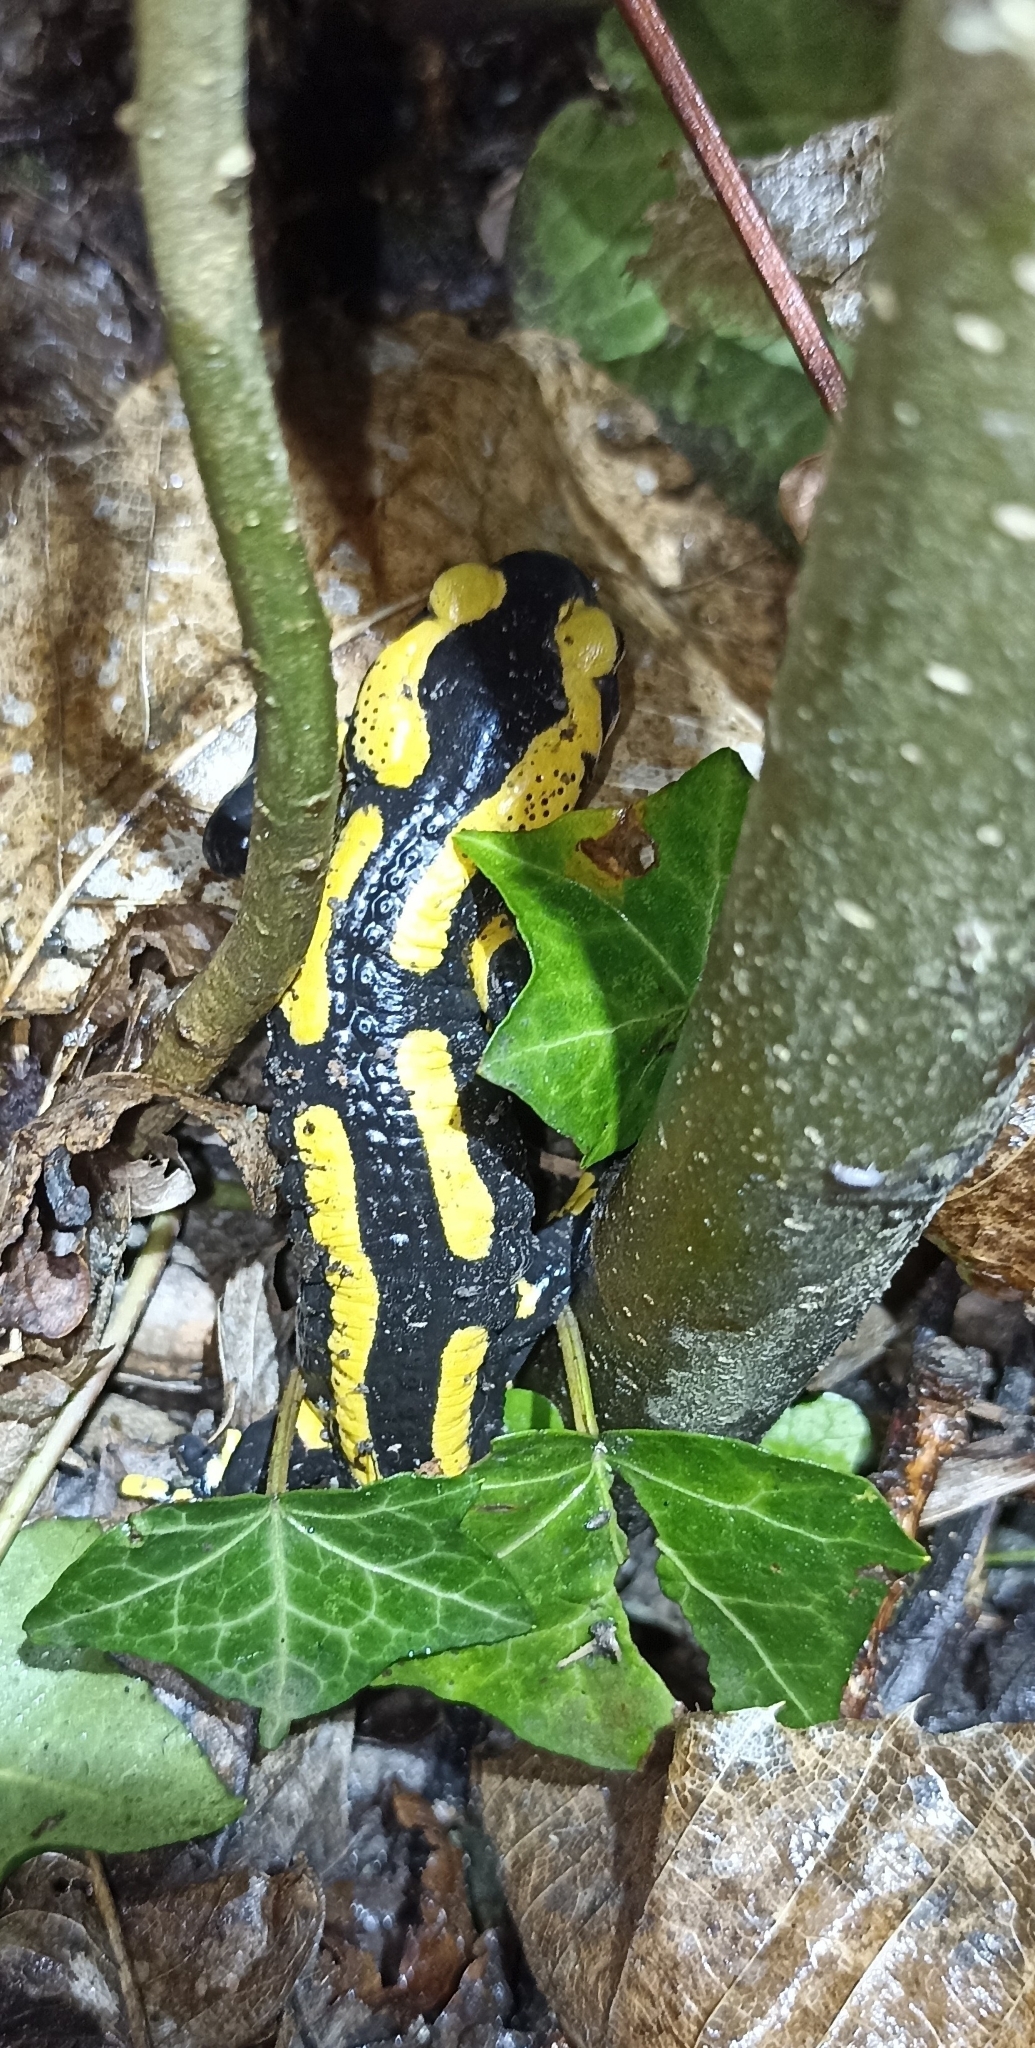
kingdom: Animalia
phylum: Chordata
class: Amphibia
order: Caudata
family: Salamandridae
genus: Salamandra
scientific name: Salamandra salamandra
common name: Fire salamander
